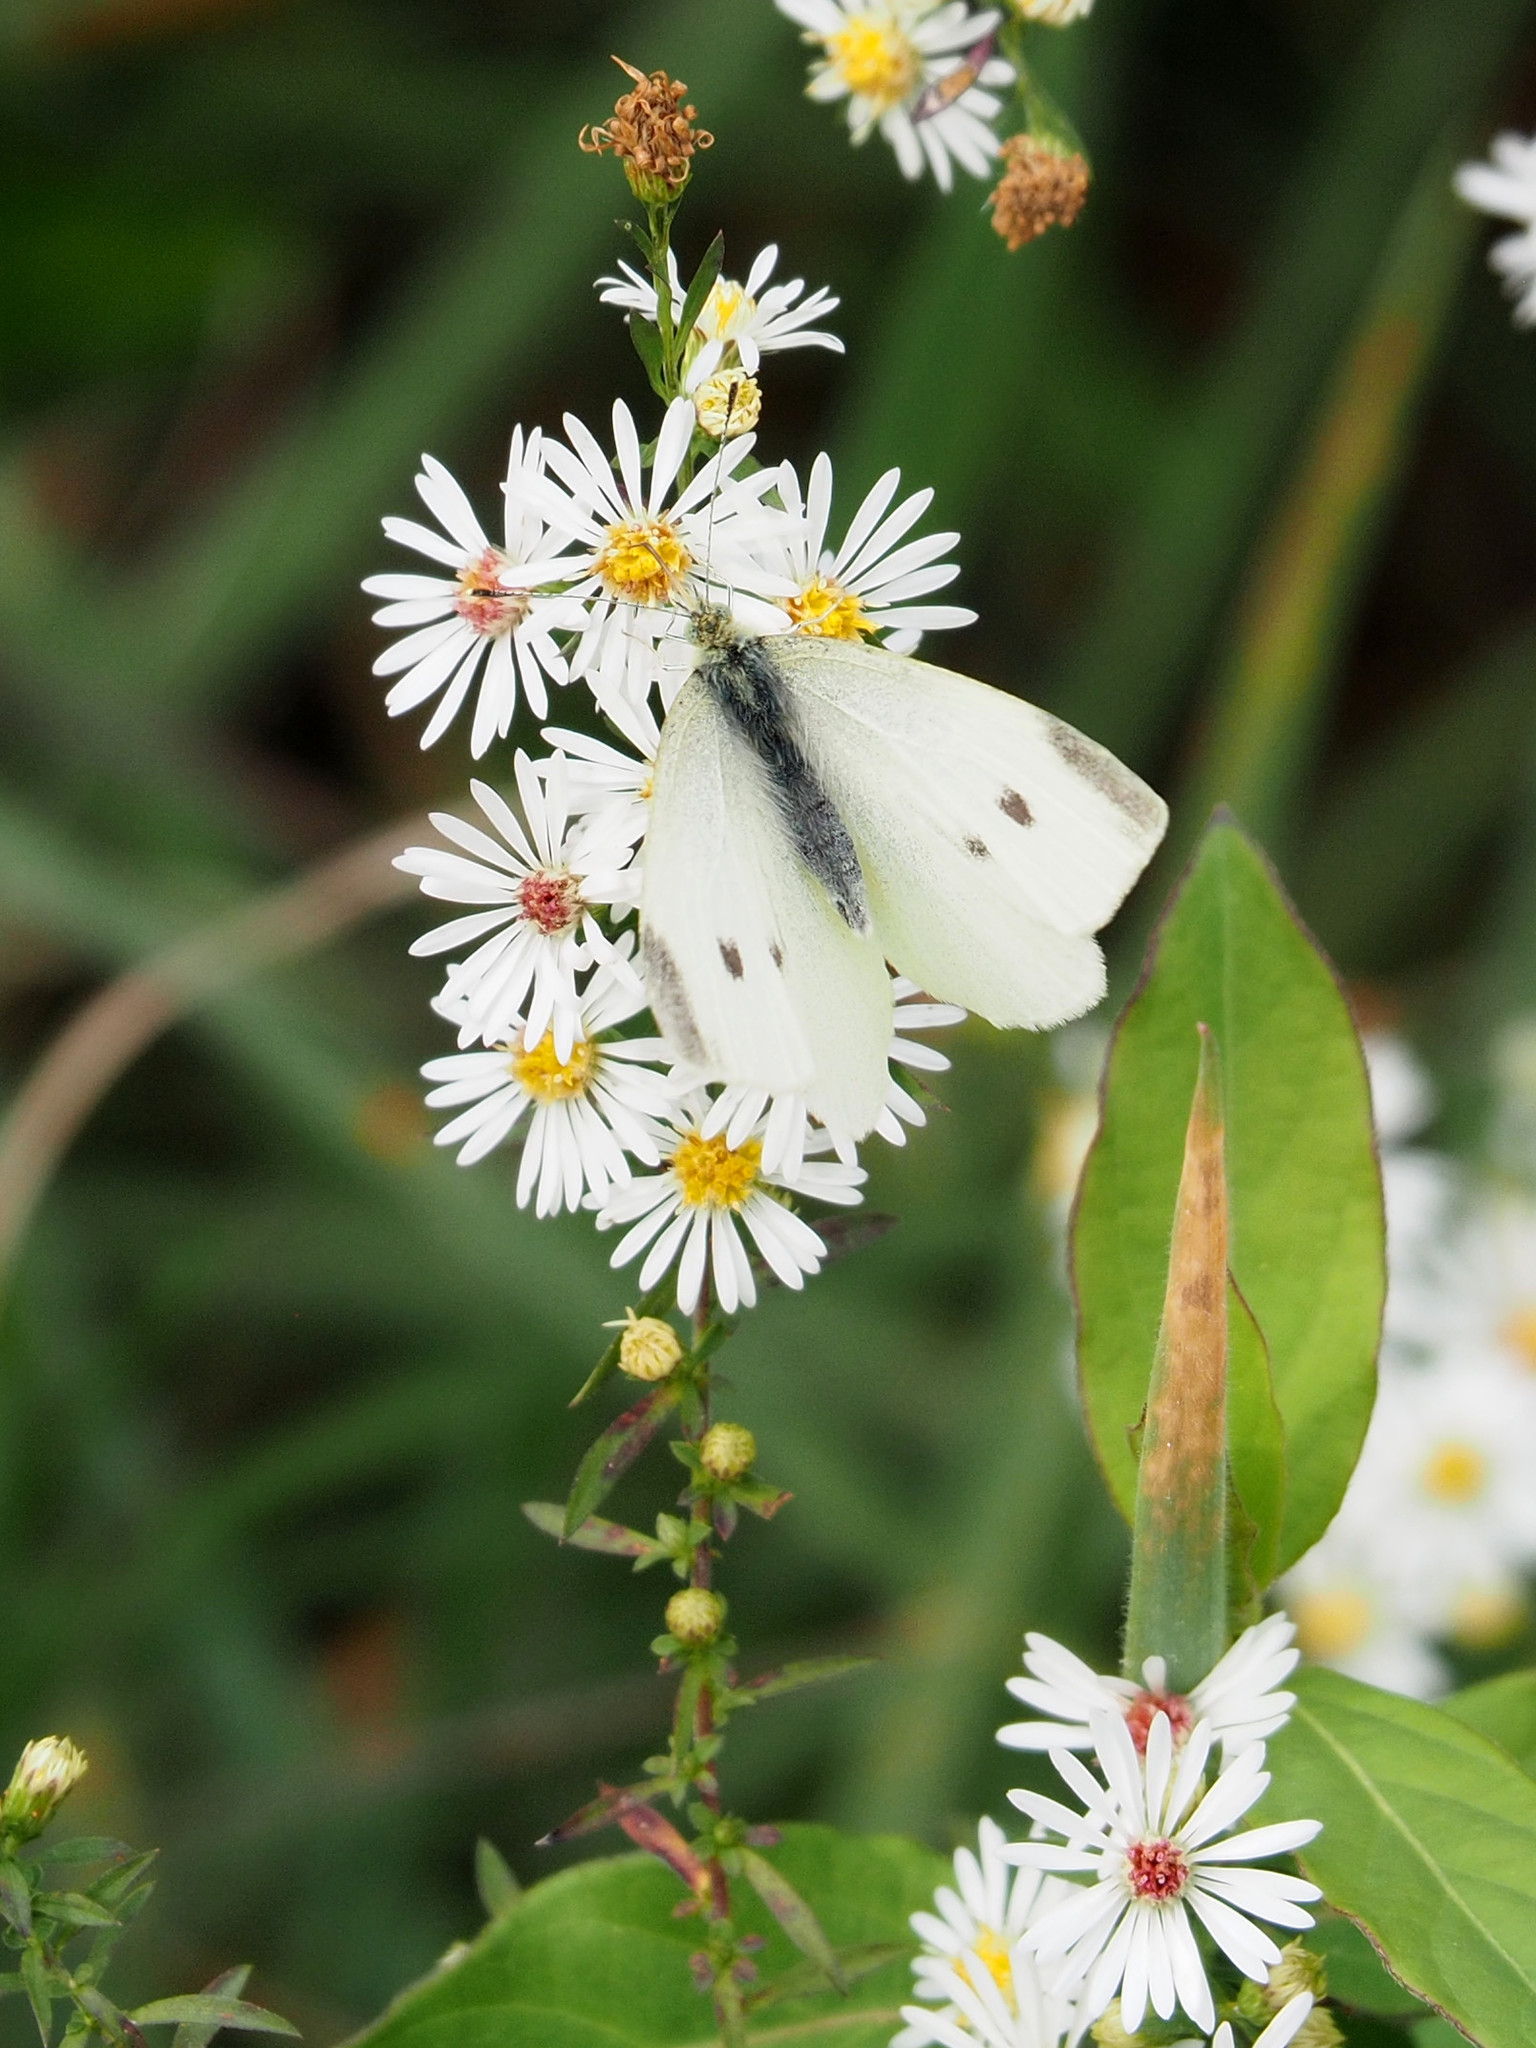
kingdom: Animalia
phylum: Arthropoda
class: Insecta
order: Lepidoptera
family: Pieridae
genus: Pieris
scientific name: Pieris rapae
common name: Small white
